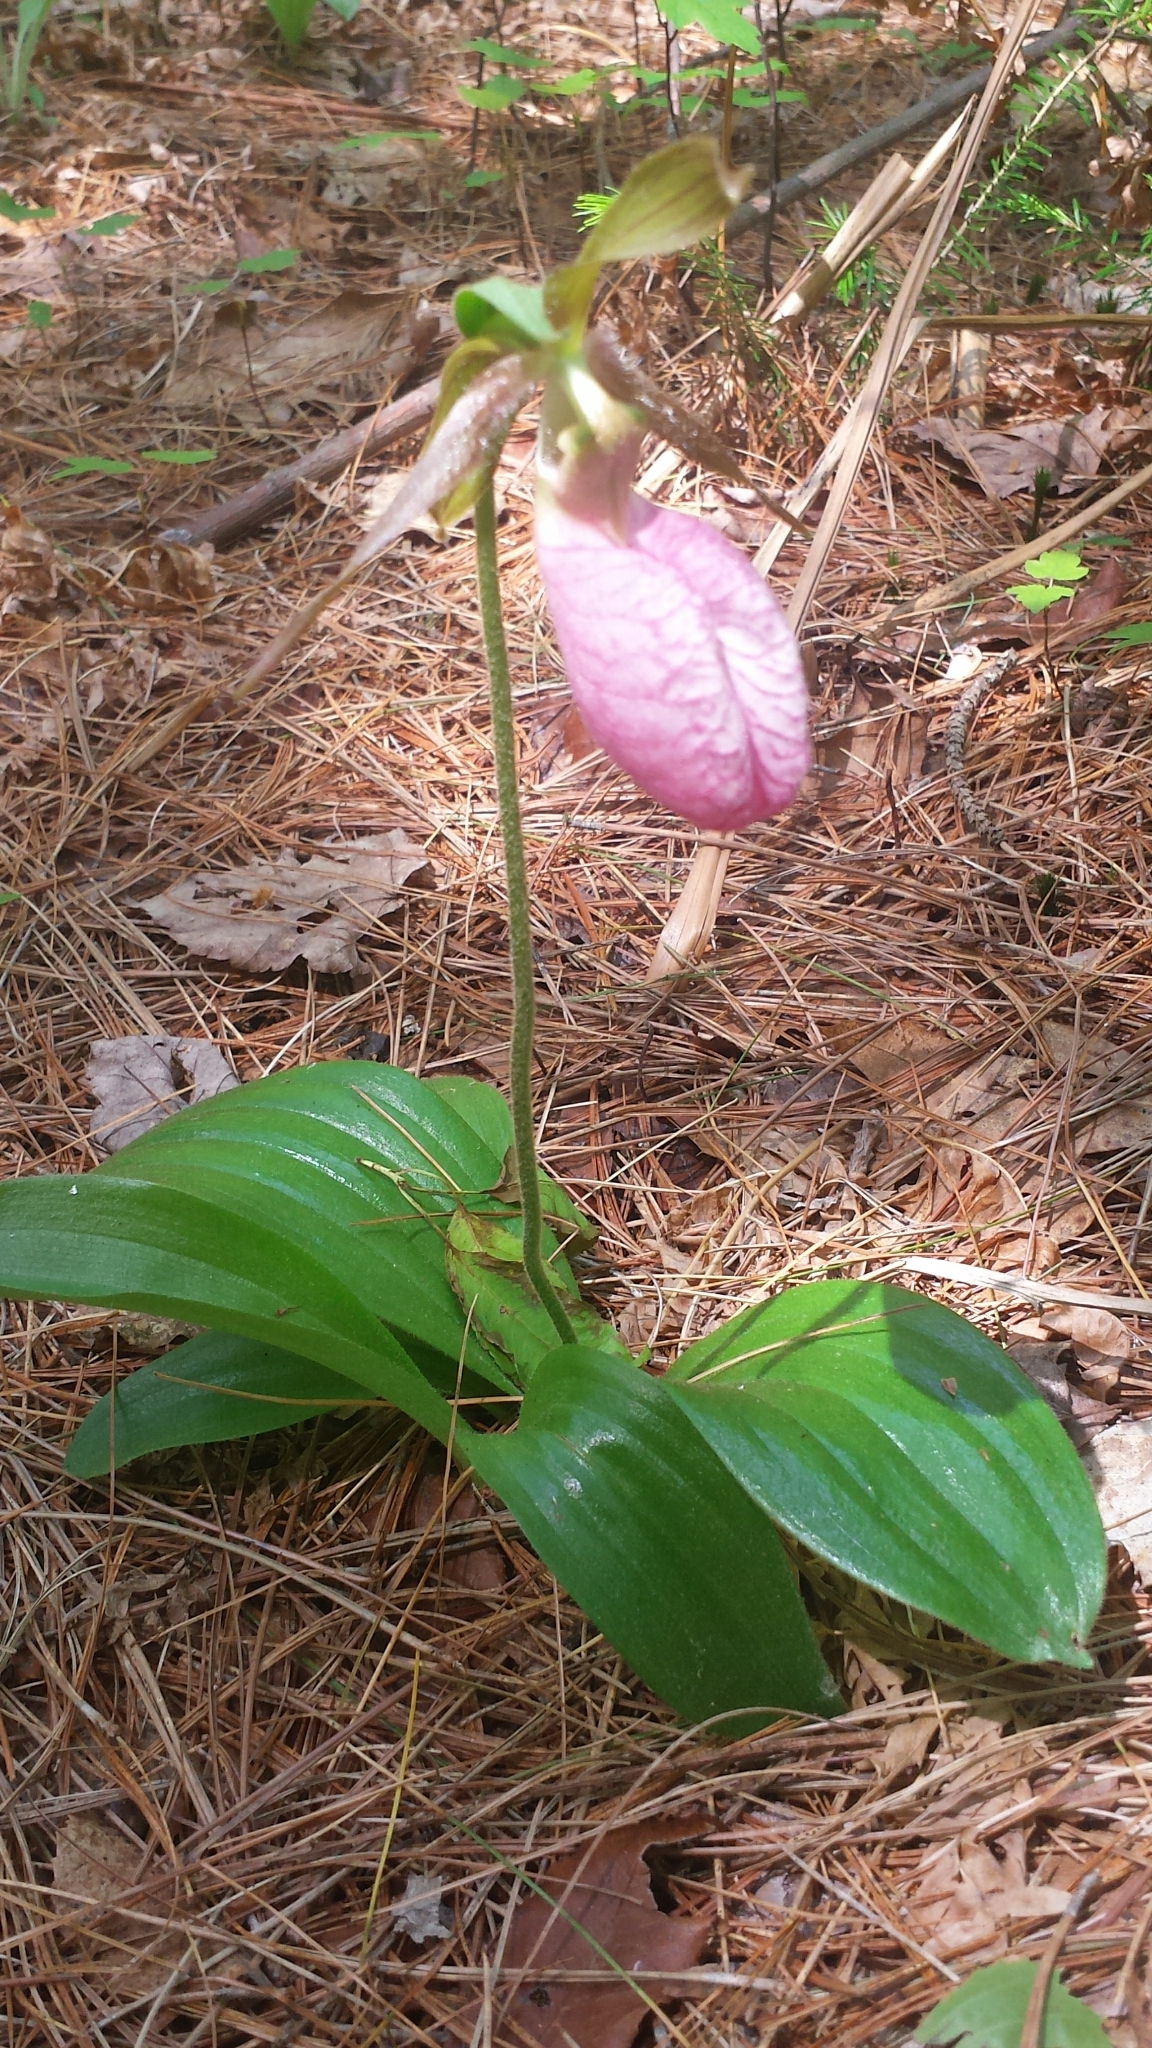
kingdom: Plantae
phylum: Tracheophyta
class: Liliopsida
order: Asparagales
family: Orchidaceae
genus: Cypripedium
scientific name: Cypripedium acaule
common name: Pink lady's-slipper
